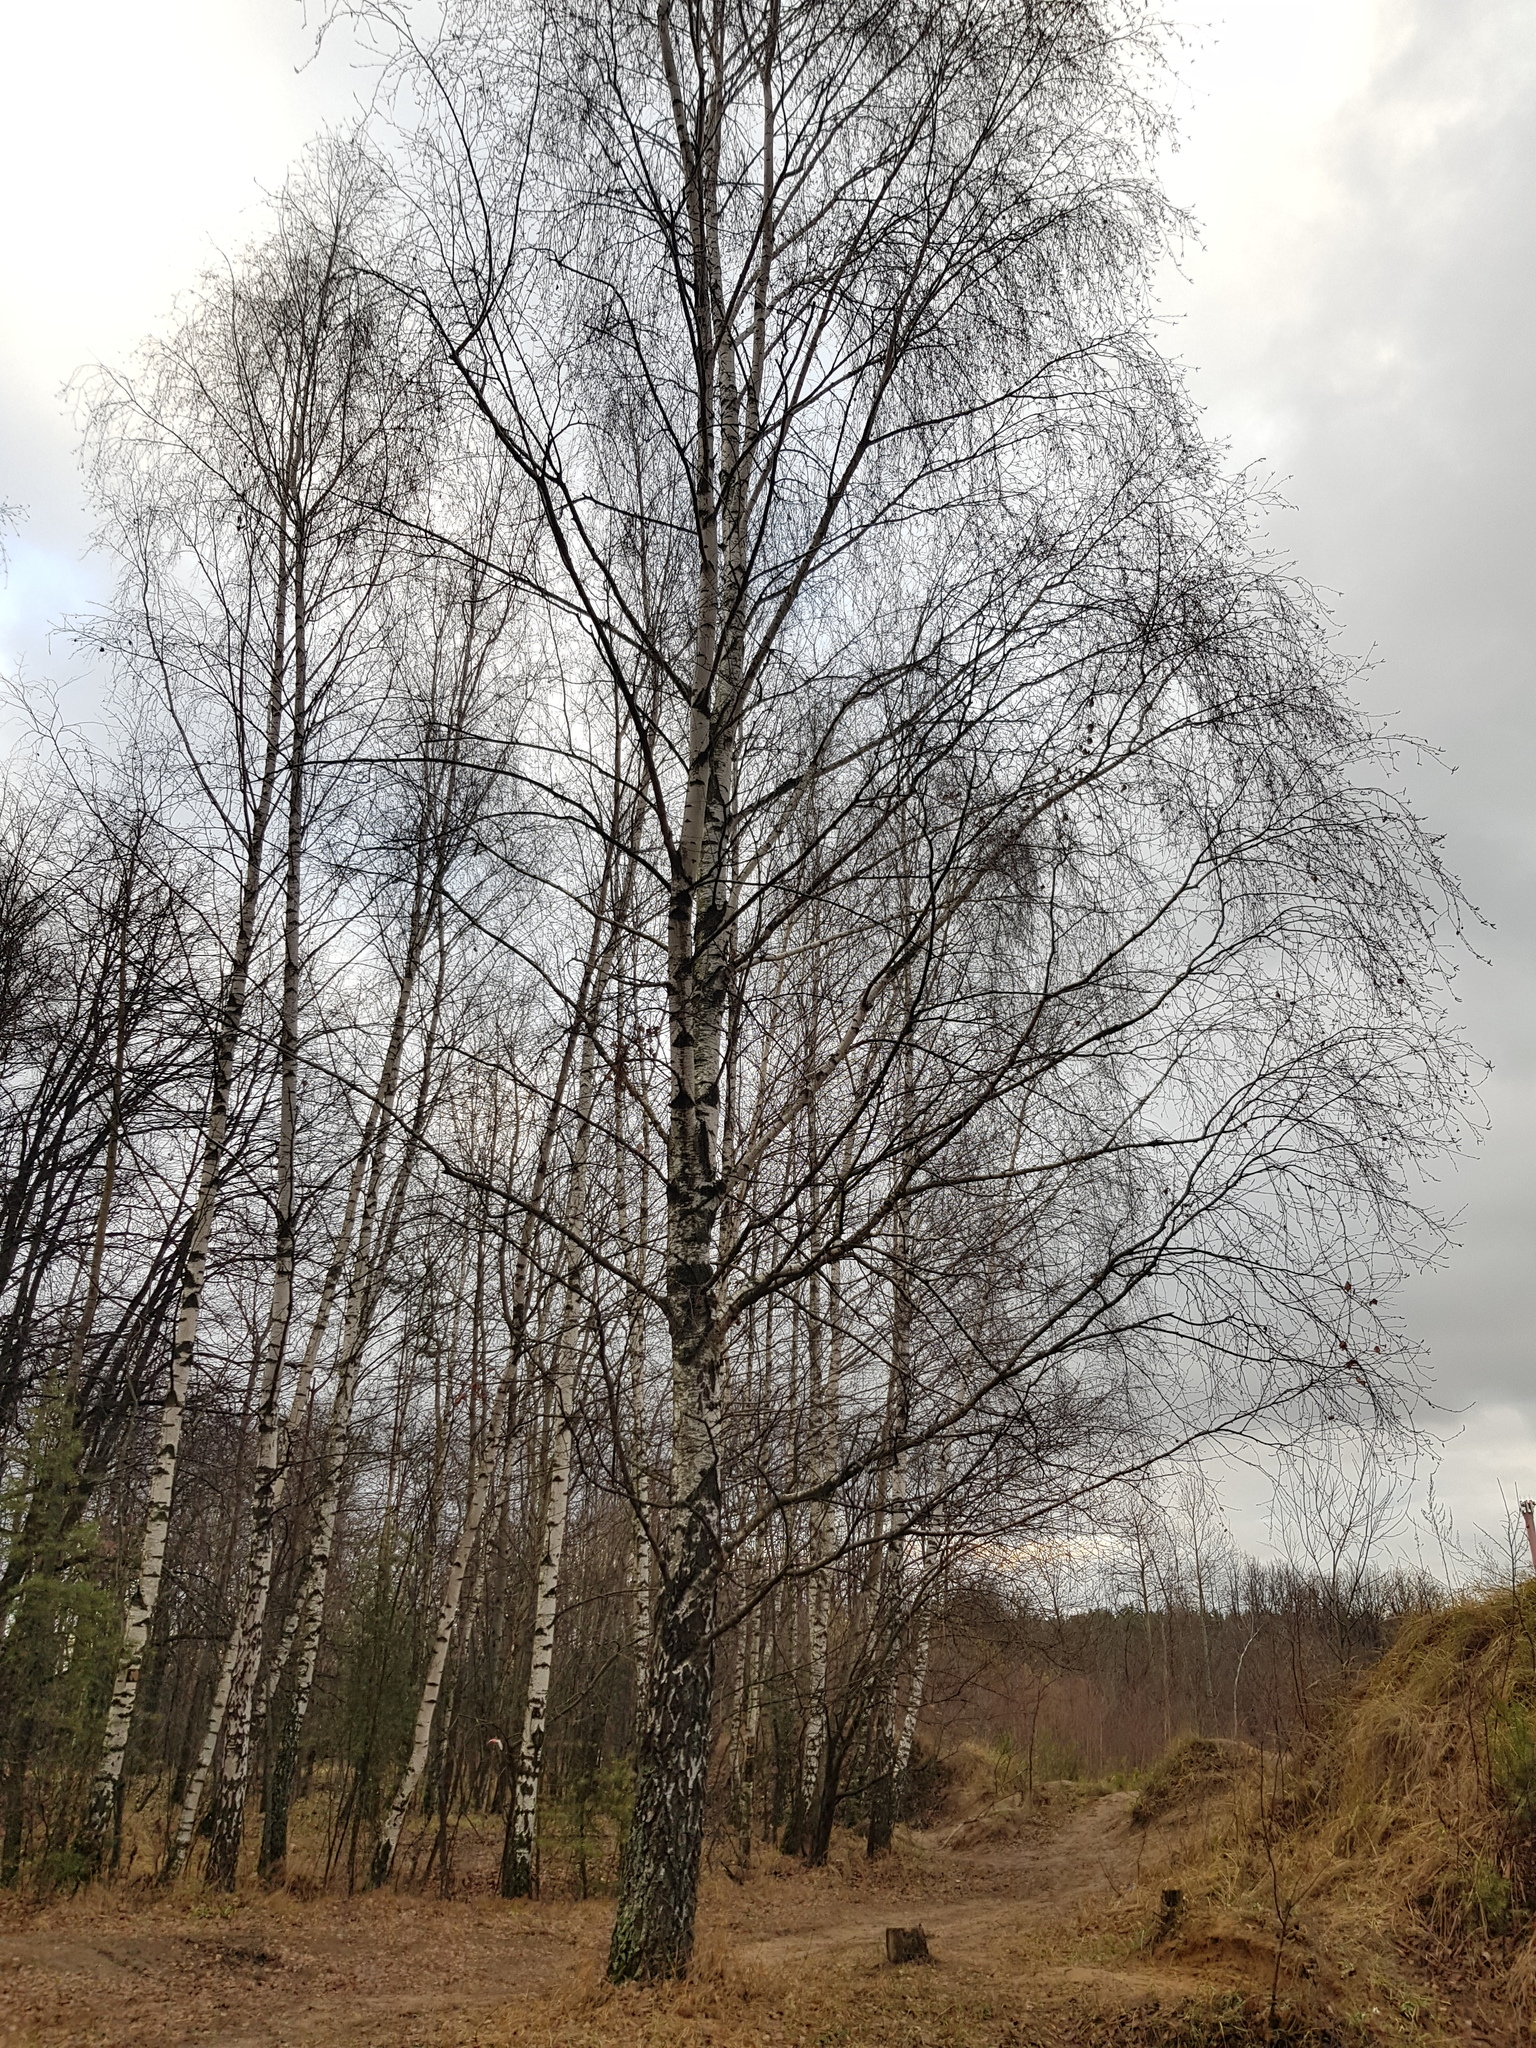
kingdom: Plantae
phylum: Tracheophyta
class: Magnoliopsida
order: Fagales
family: Betulaceae
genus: Betula
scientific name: Betula pendula
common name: Silver birch
